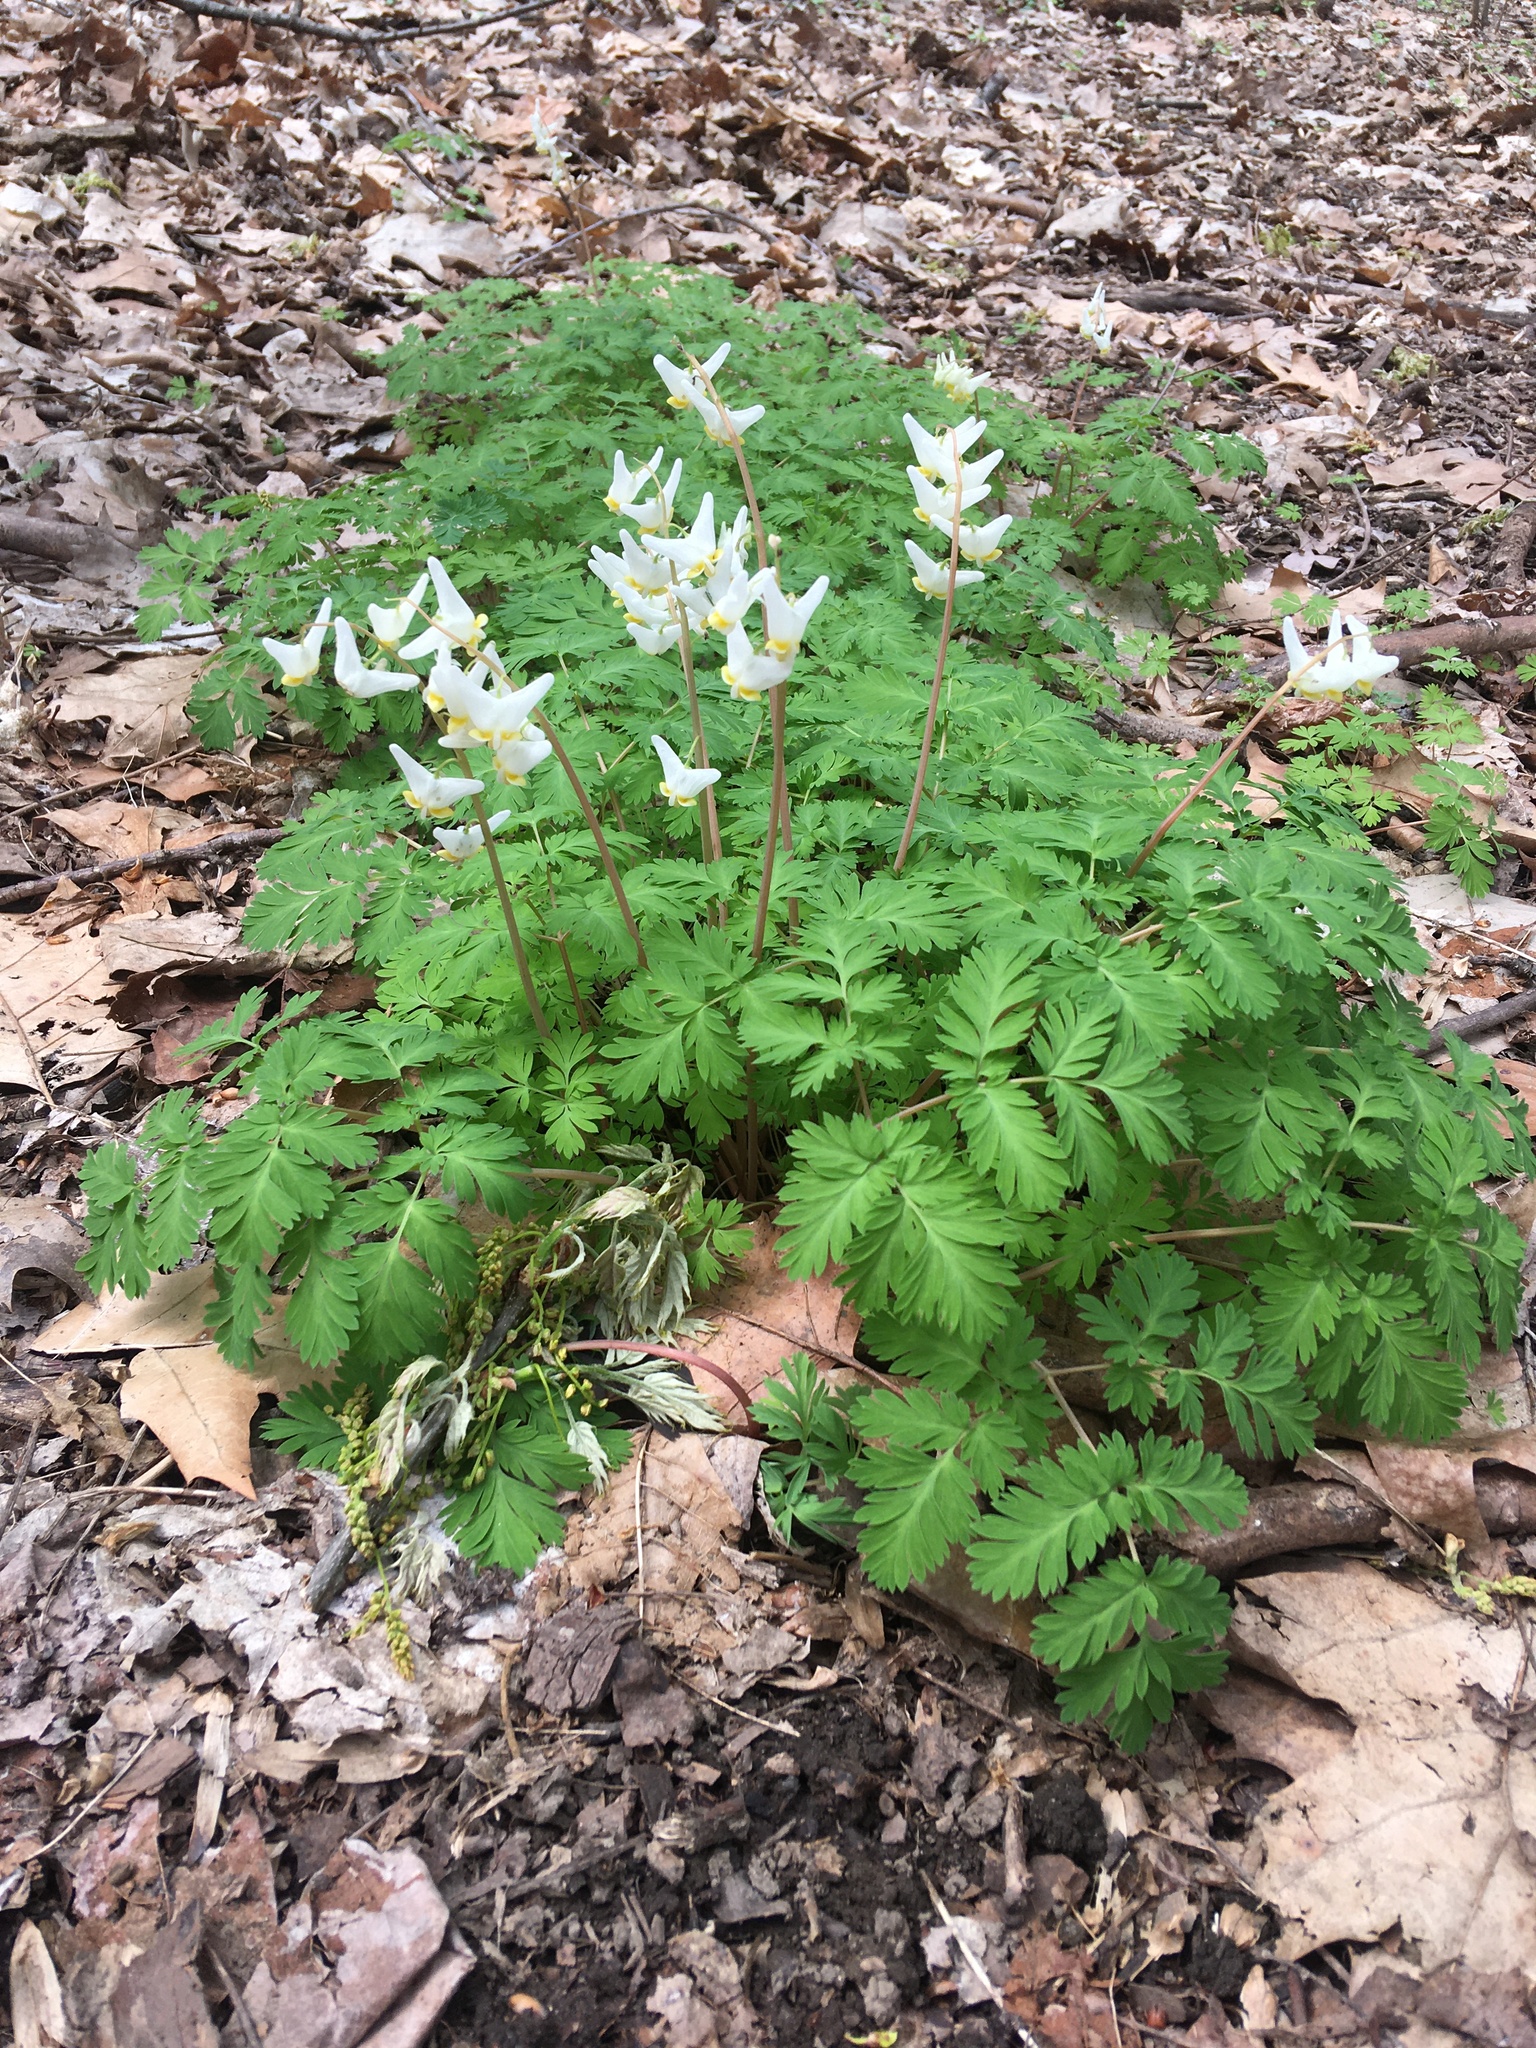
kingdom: Plantae
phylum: Tracheophyta
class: Magnoliopsida
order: Ranunculales
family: Papaveraceae
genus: Dicentra
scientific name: Dicentra cucullaria
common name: Dutchman's breeches
